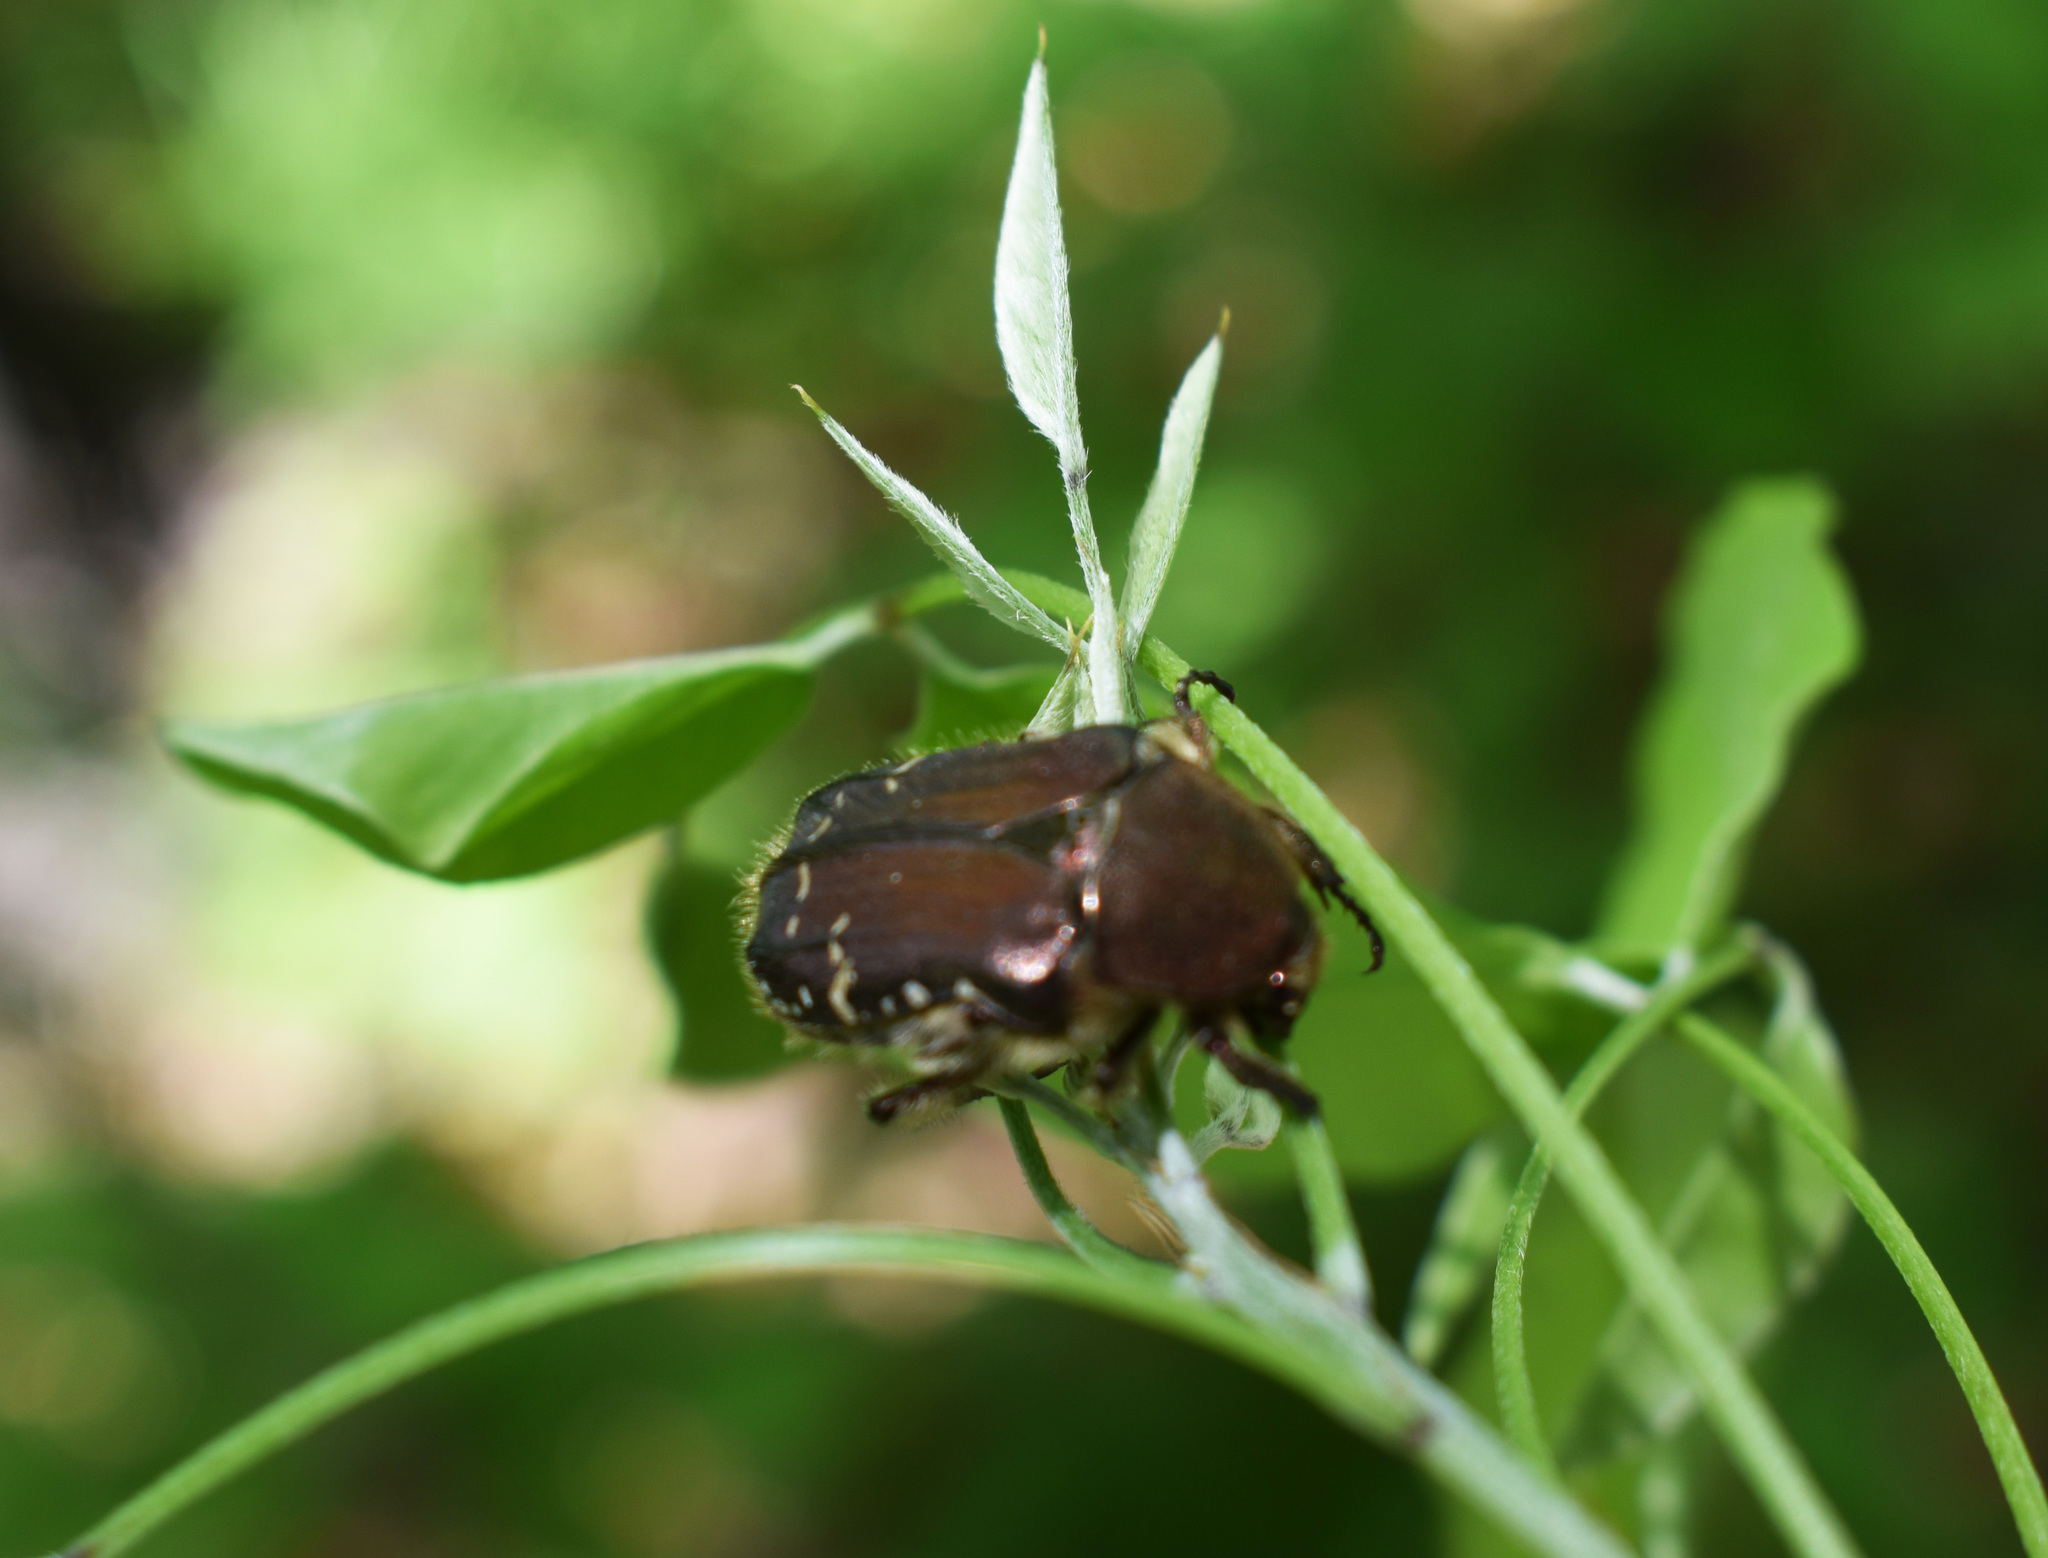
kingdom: Animalia
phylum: Arthropoda
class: Insecta
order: Coleoptera
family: Scarabaeidae
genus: Cetonia
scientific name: Cetonia magnifica
